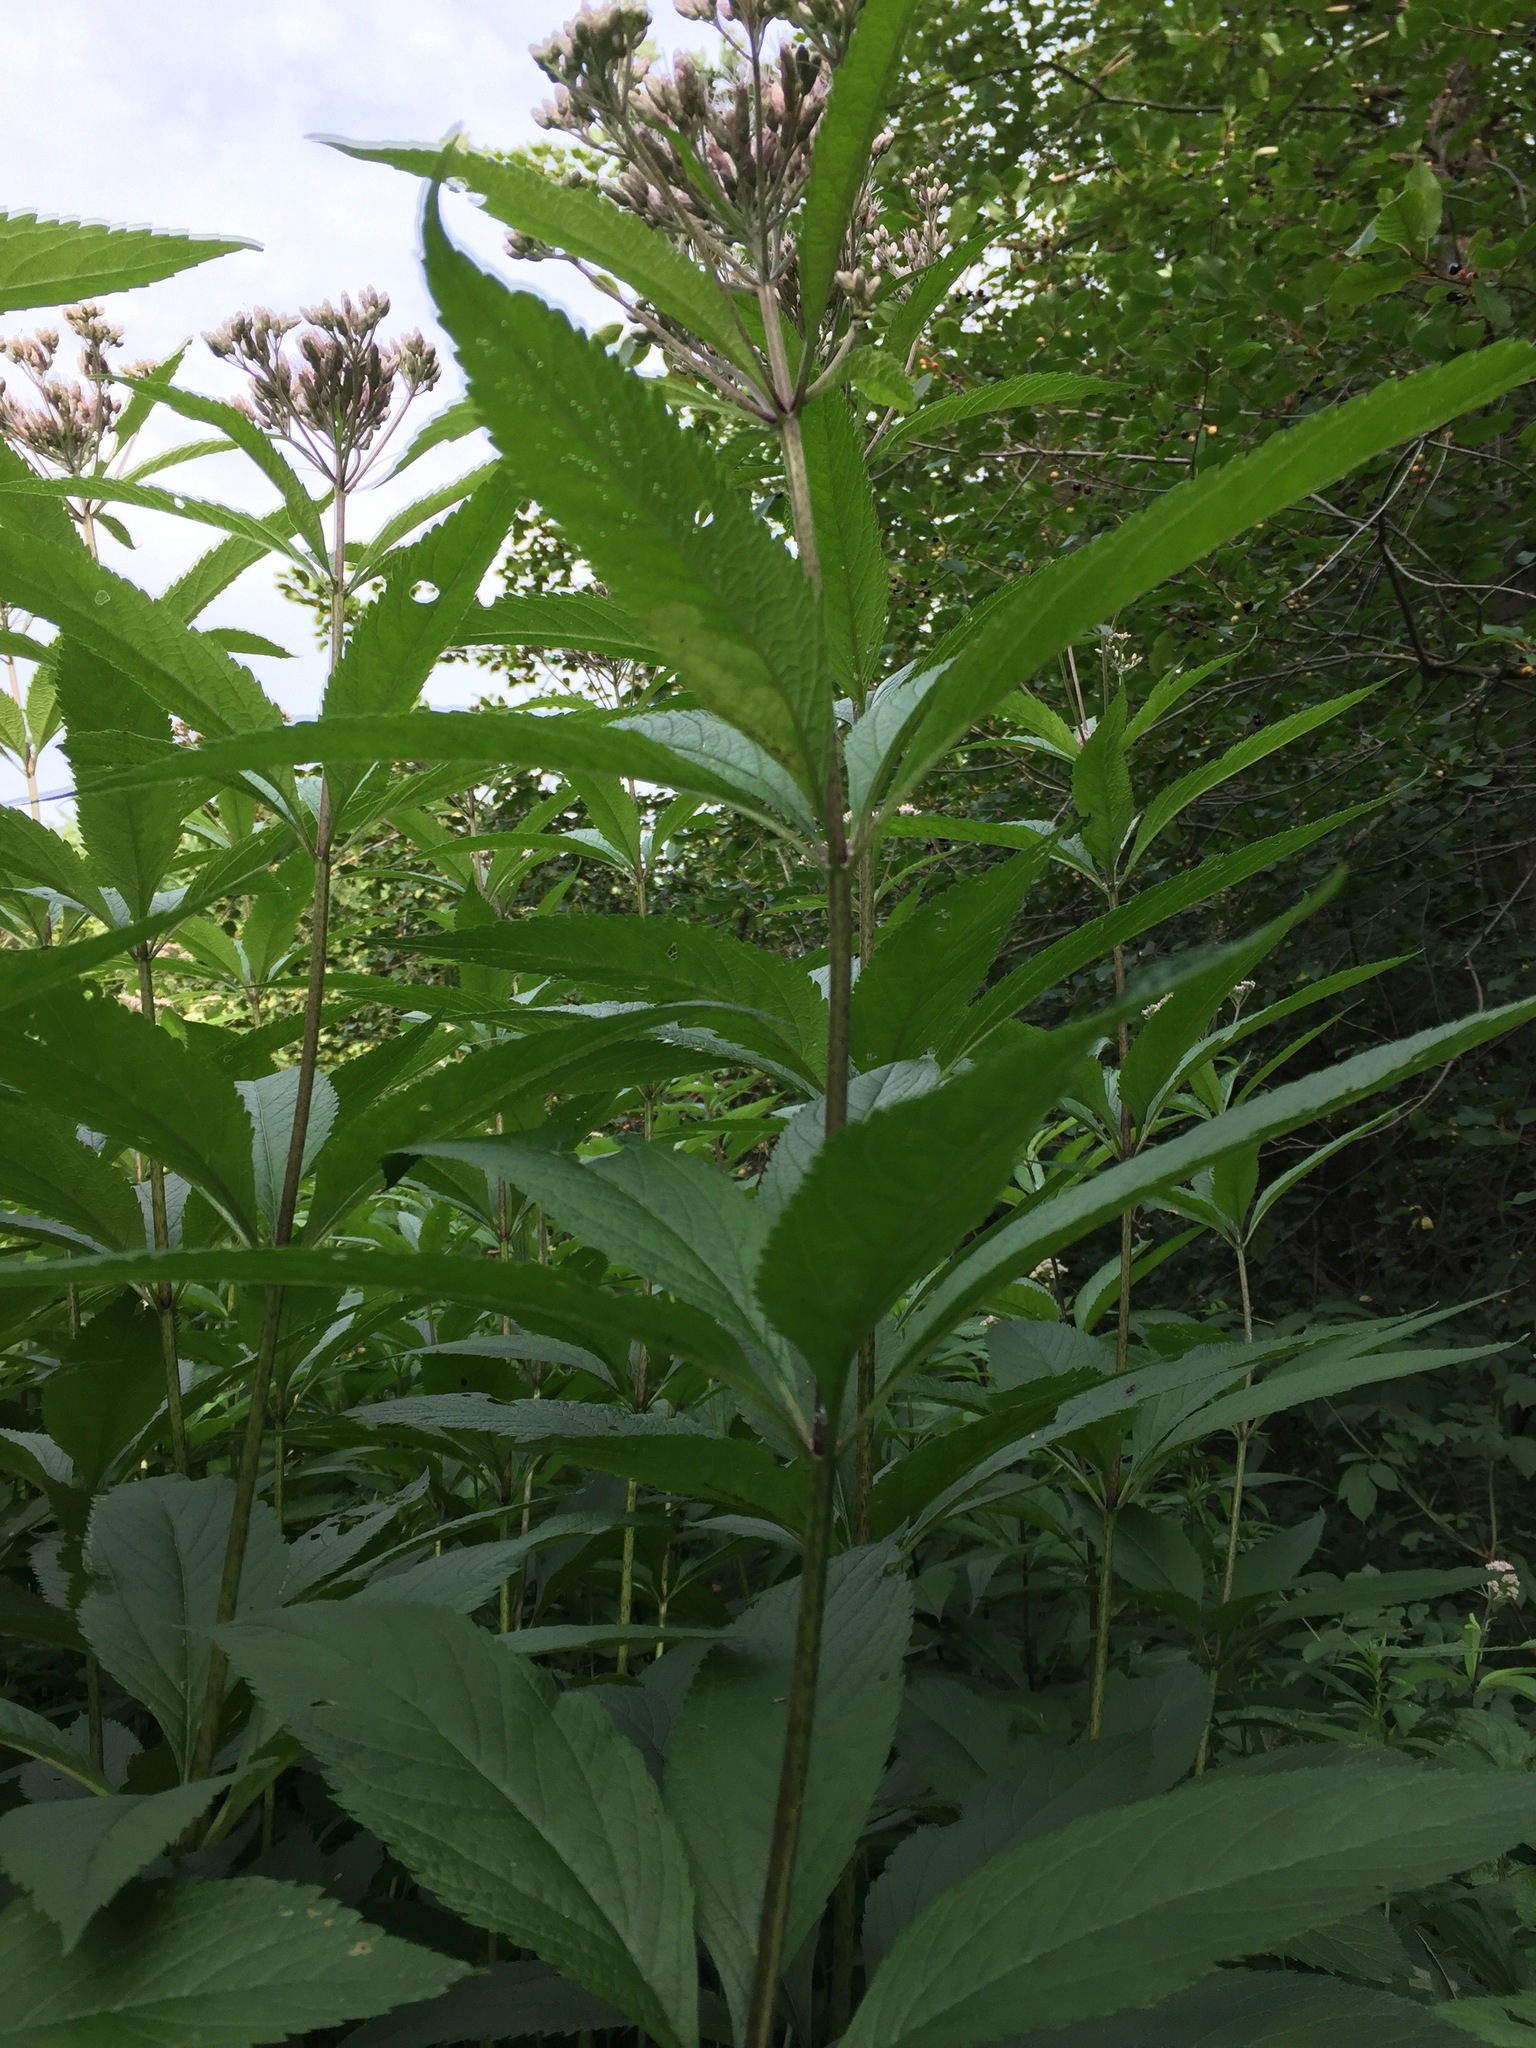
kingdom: Plantae
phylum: Tracheophyta
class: Magnoliopsida
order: Asterales
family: Asteraceae
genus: Eutrochium
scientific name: Eutrochium maculatum
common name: Spotted joe pye weed
